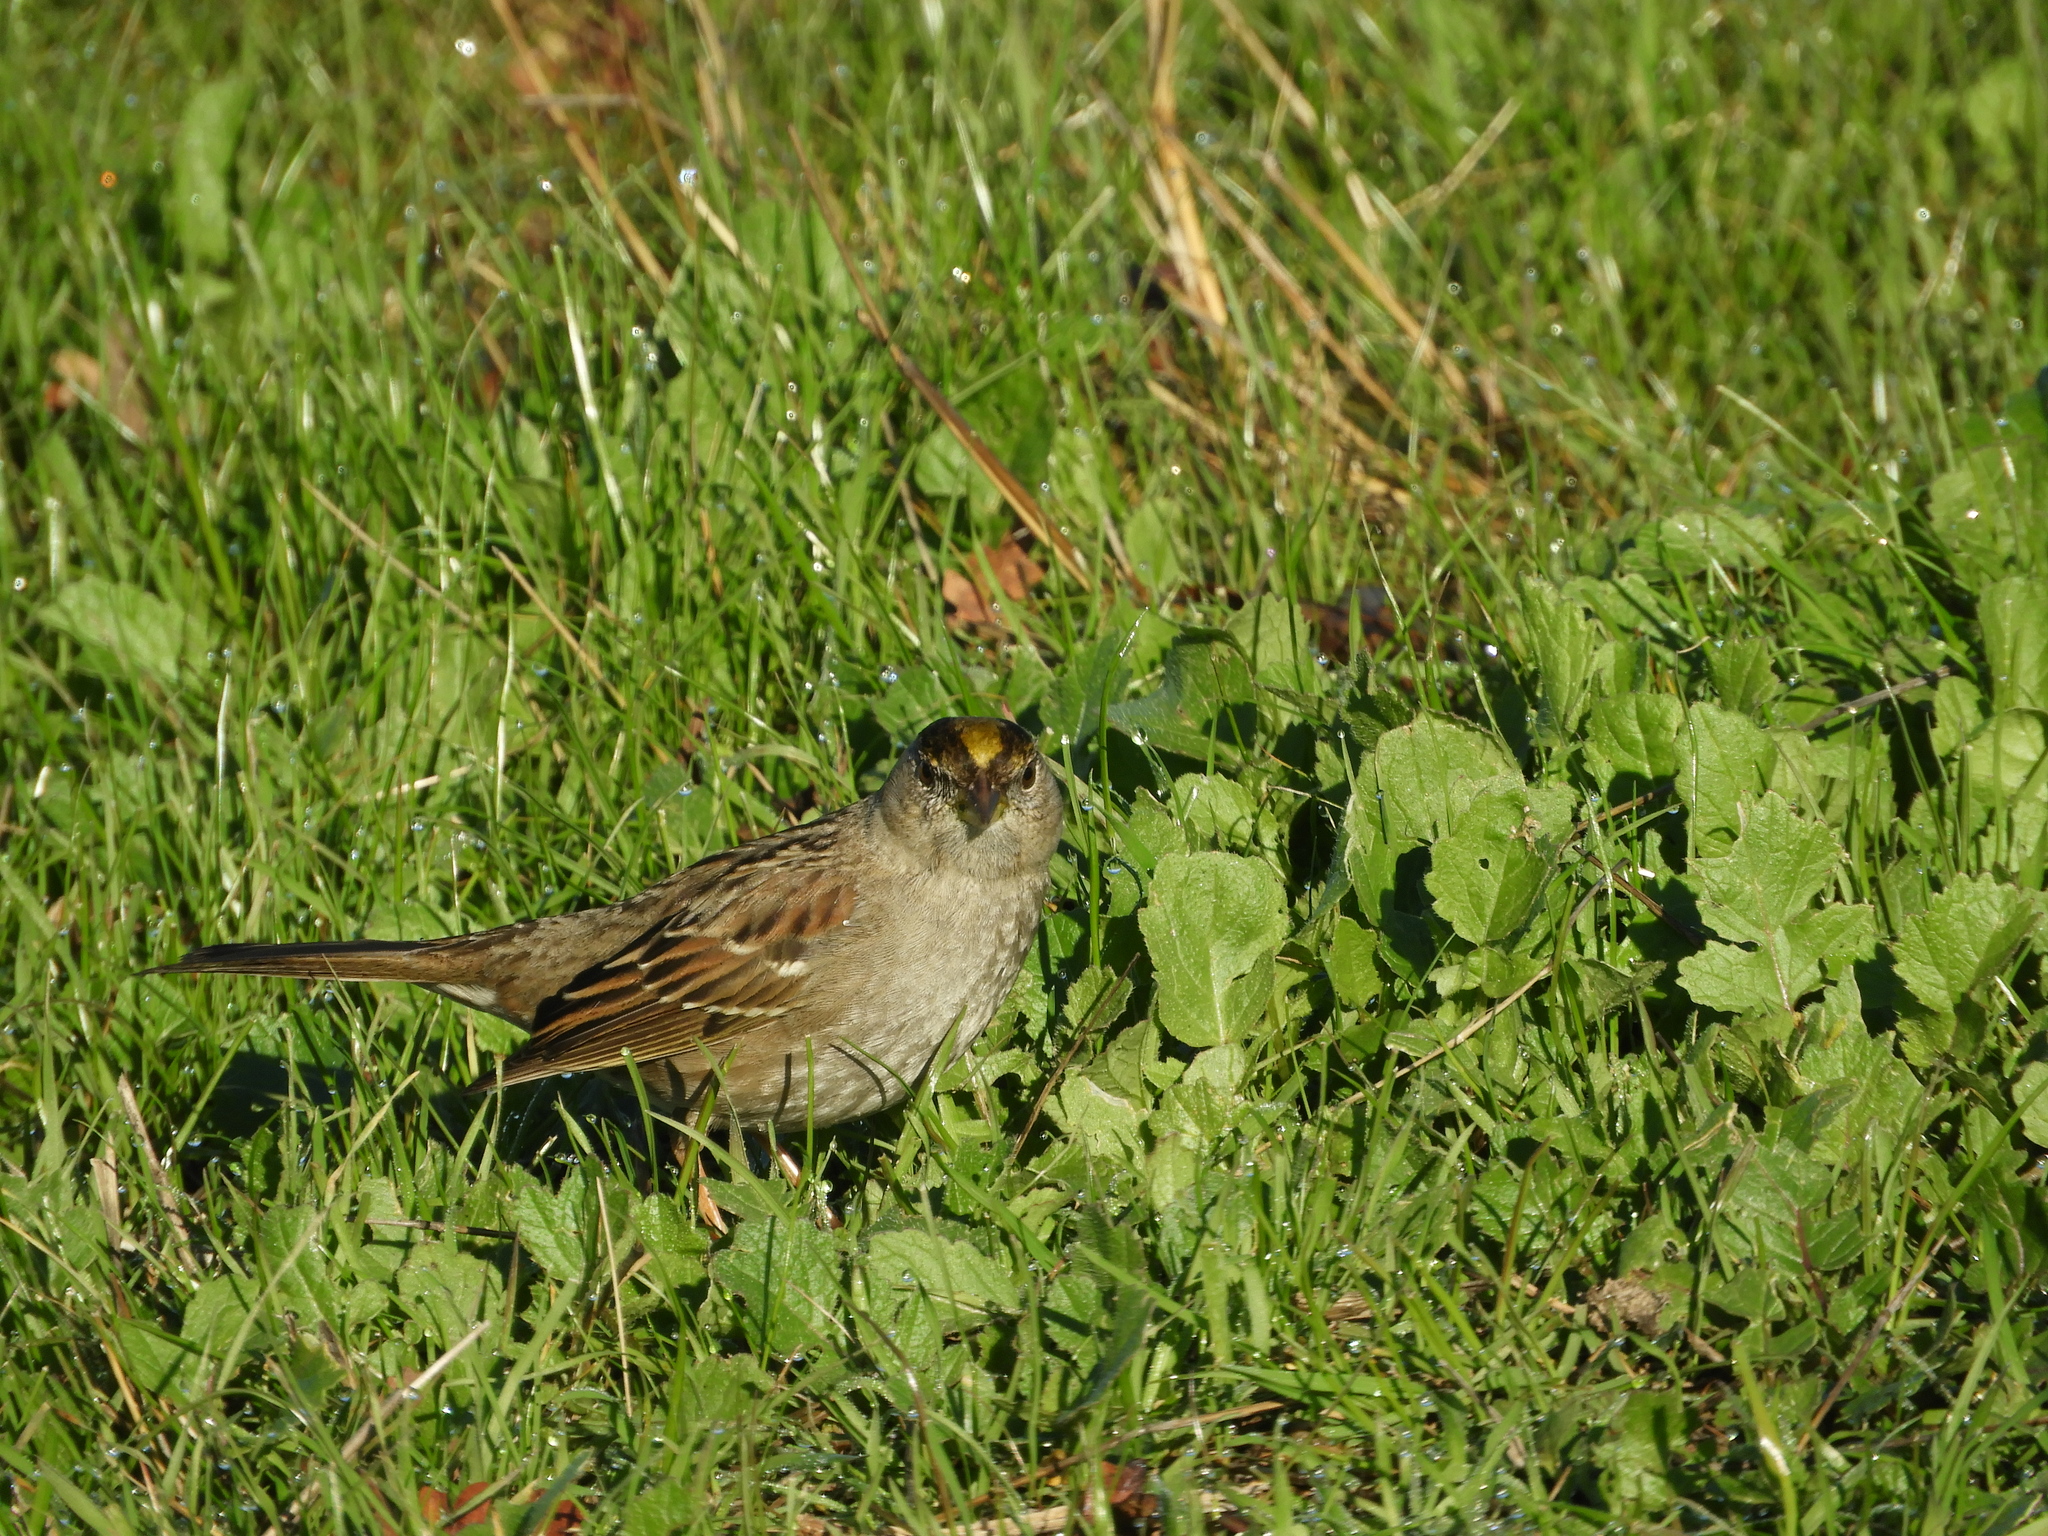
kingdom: Animalia
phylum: Chordata
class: Aves
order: Passeriformes
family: Passerellidae
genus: Zonotrichia
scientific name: Zonotrichia atricapilla
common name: Golden-crowned sparrow
